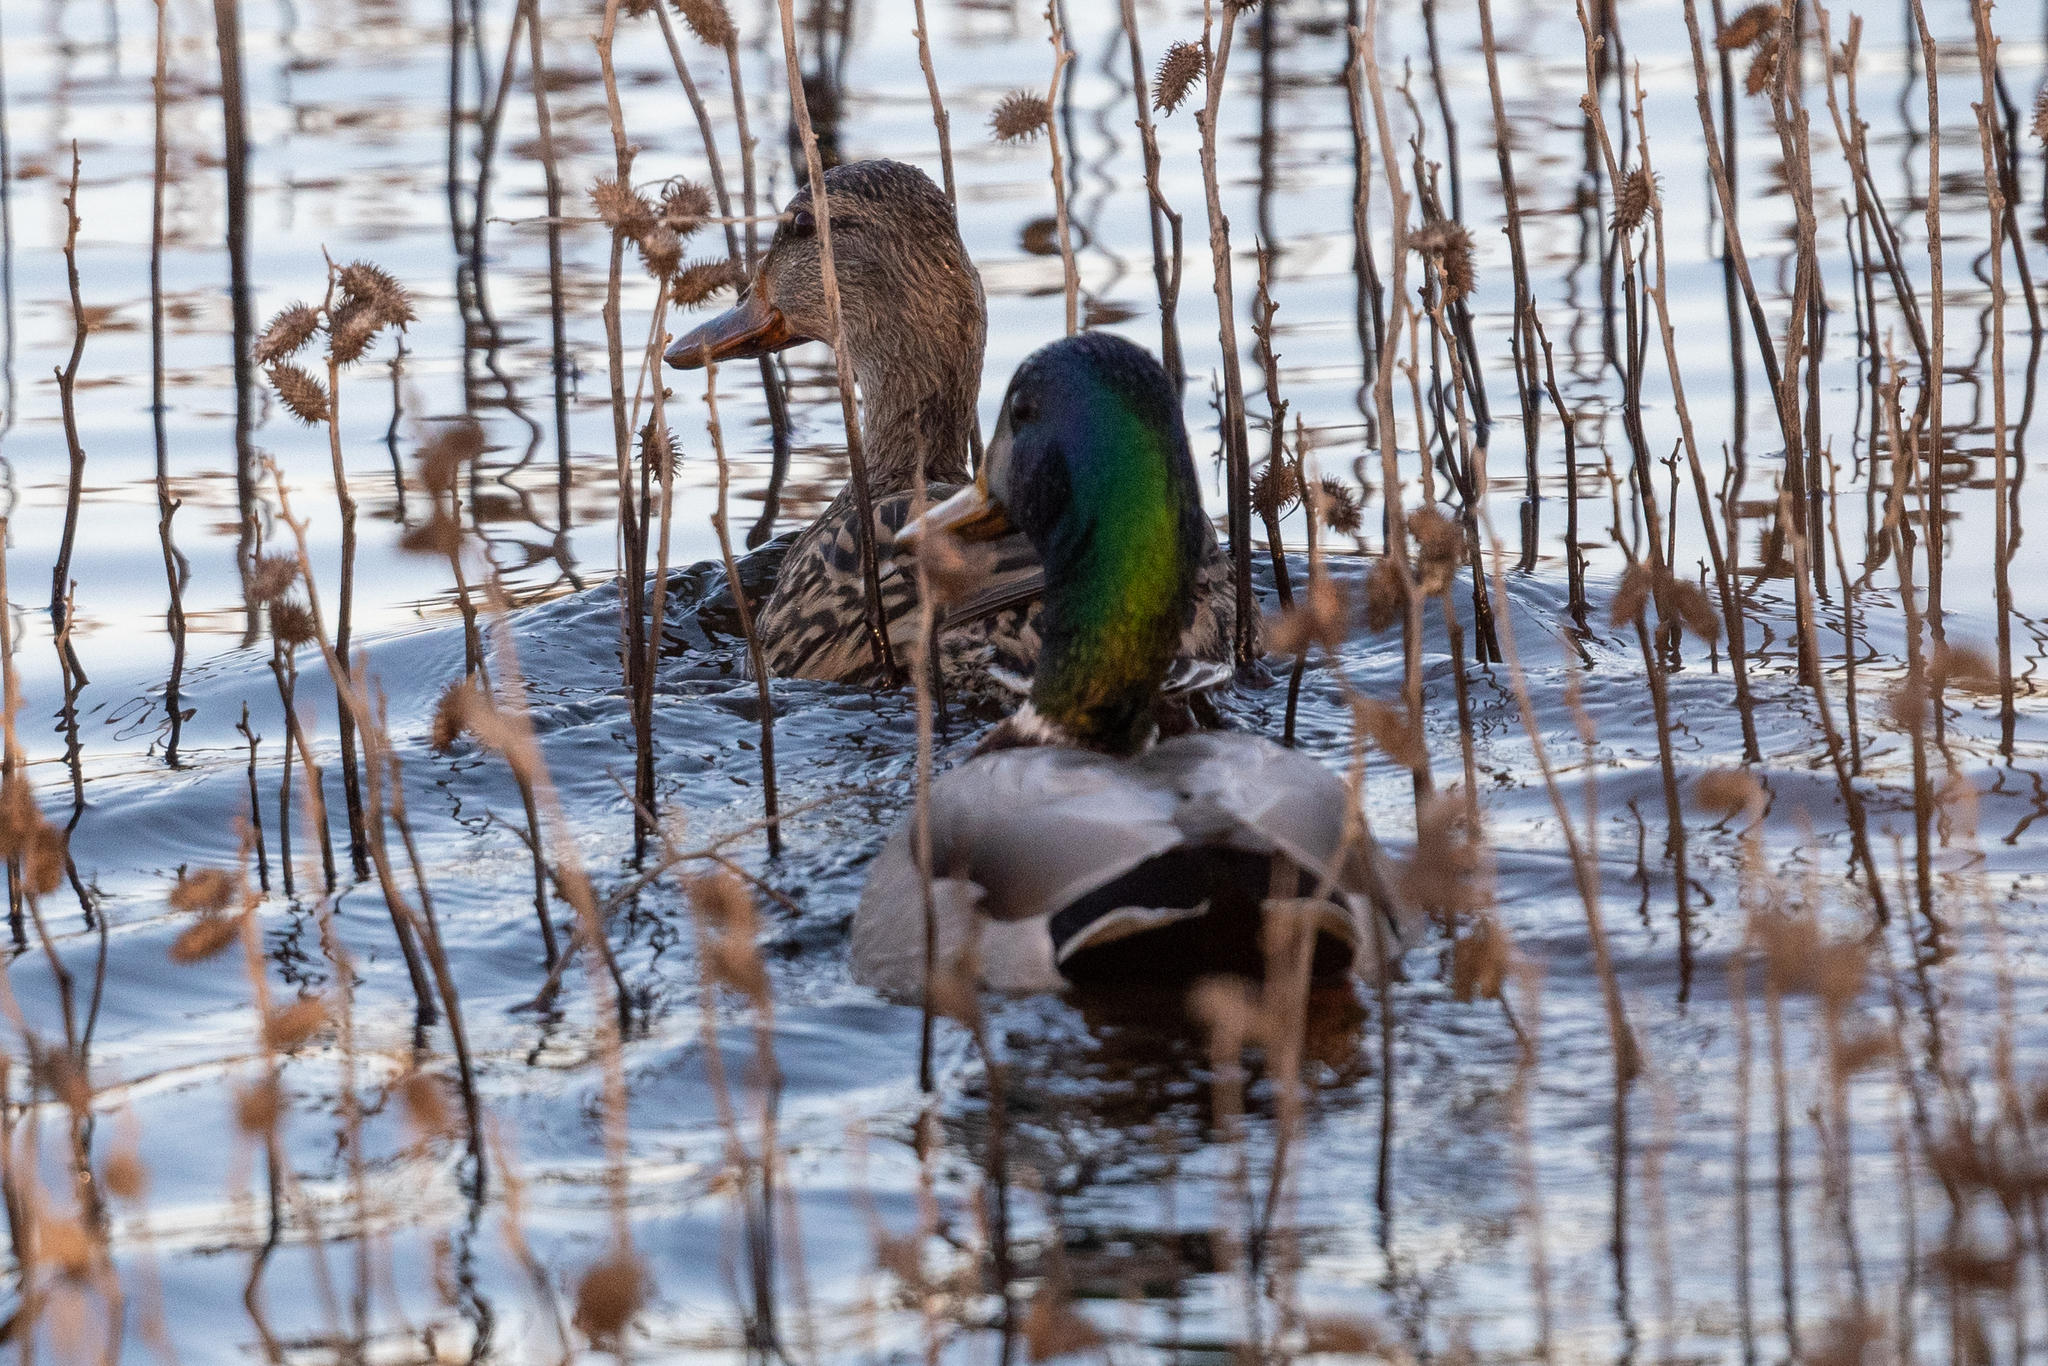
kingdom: Animalia
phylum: Chordata
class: Aves
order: Anseriformes
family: Anatidae
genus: Anas
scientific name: Anas platyrhynchos
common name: Mallard
